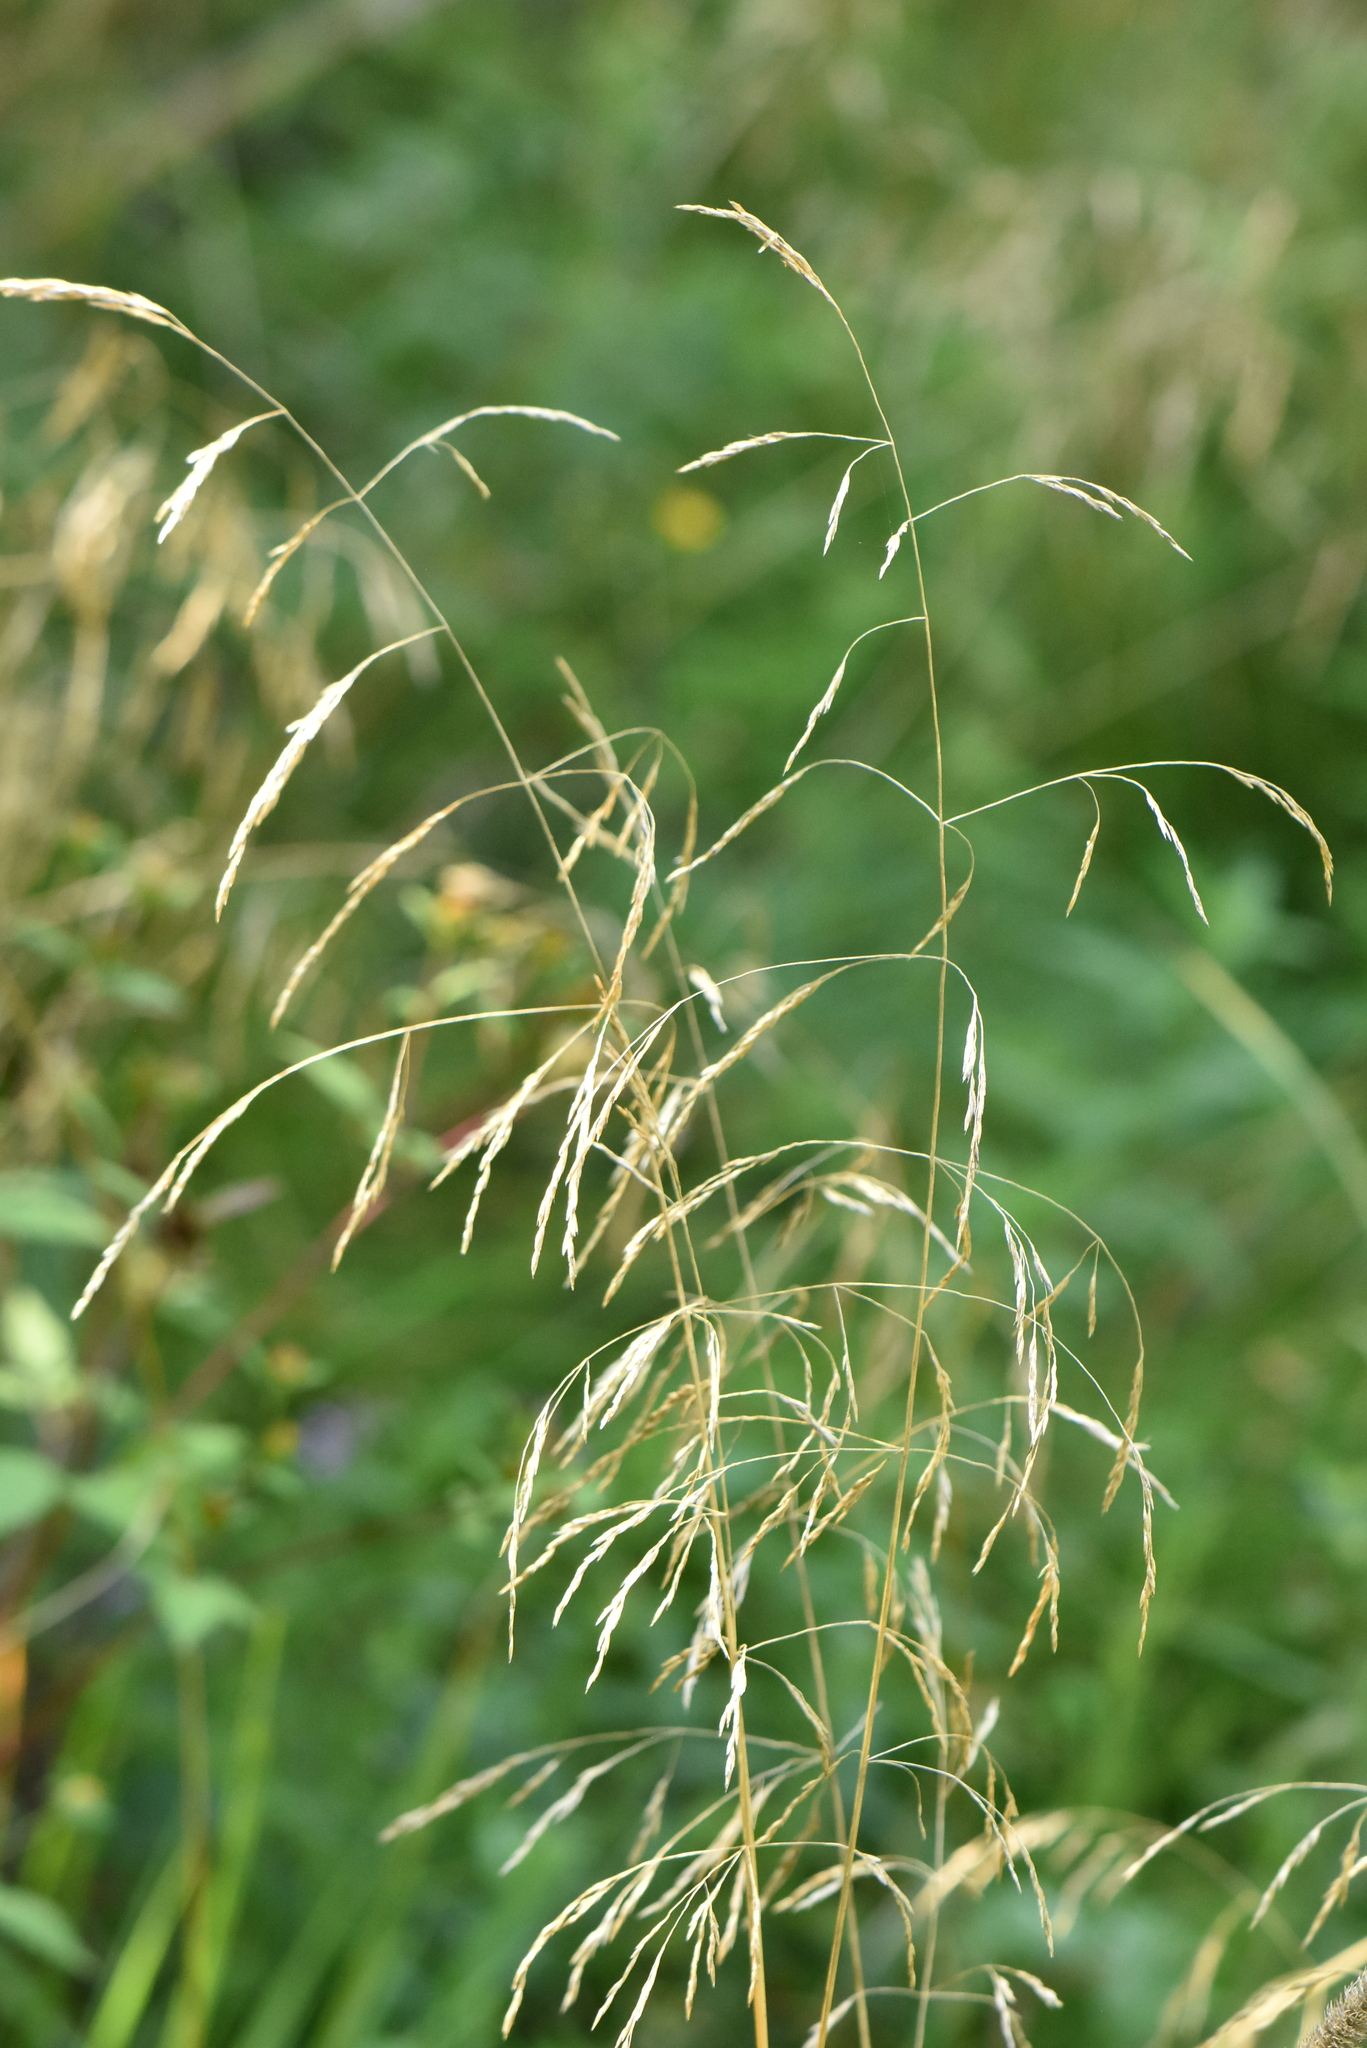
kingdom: Plantae
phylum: Tracheophyta
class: Liliopsida
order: Poales
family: Poaceae
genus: Deschampsia
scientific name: Deschampsia cespitosa
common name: Tufted hair-grass
